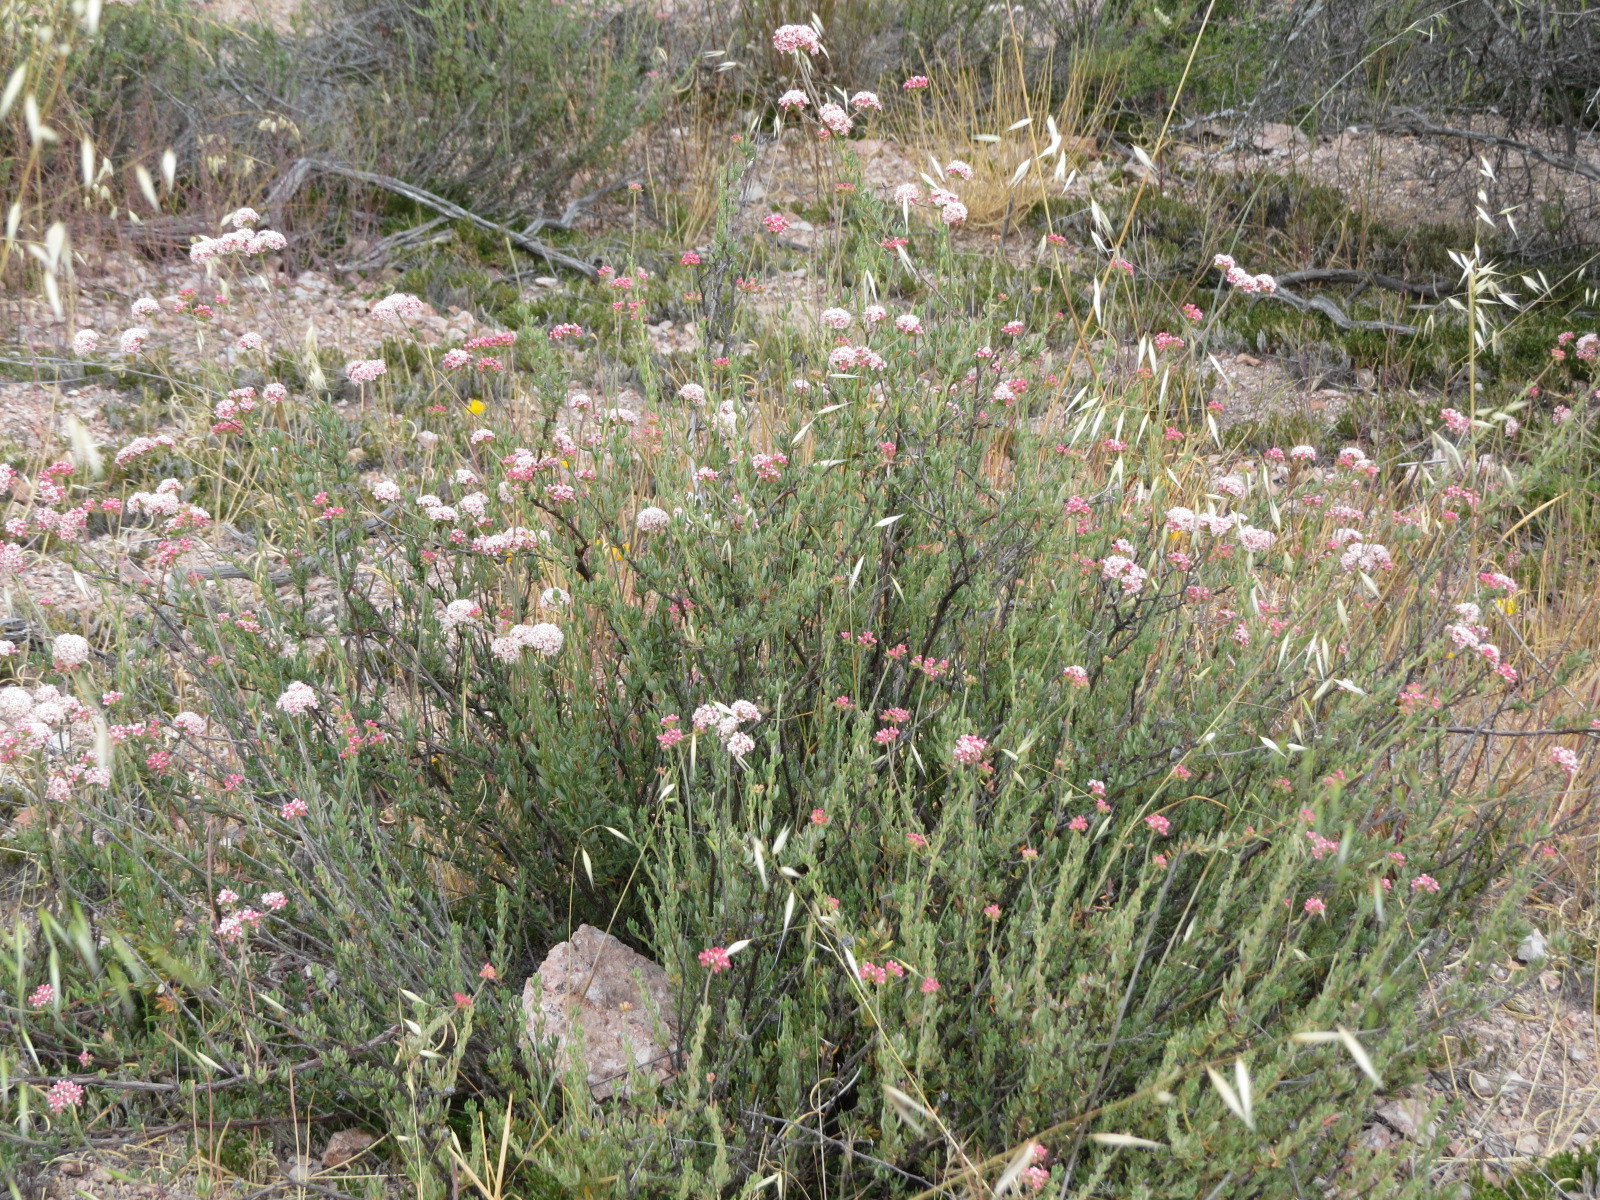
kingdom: Plantae
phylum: Tracheophyta
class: Magnoliopsida
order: Caryophyllales
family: Polygonaceae
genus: Eriogonum
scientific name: Eriogonum fasciculatum
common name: California wild buckwheat
